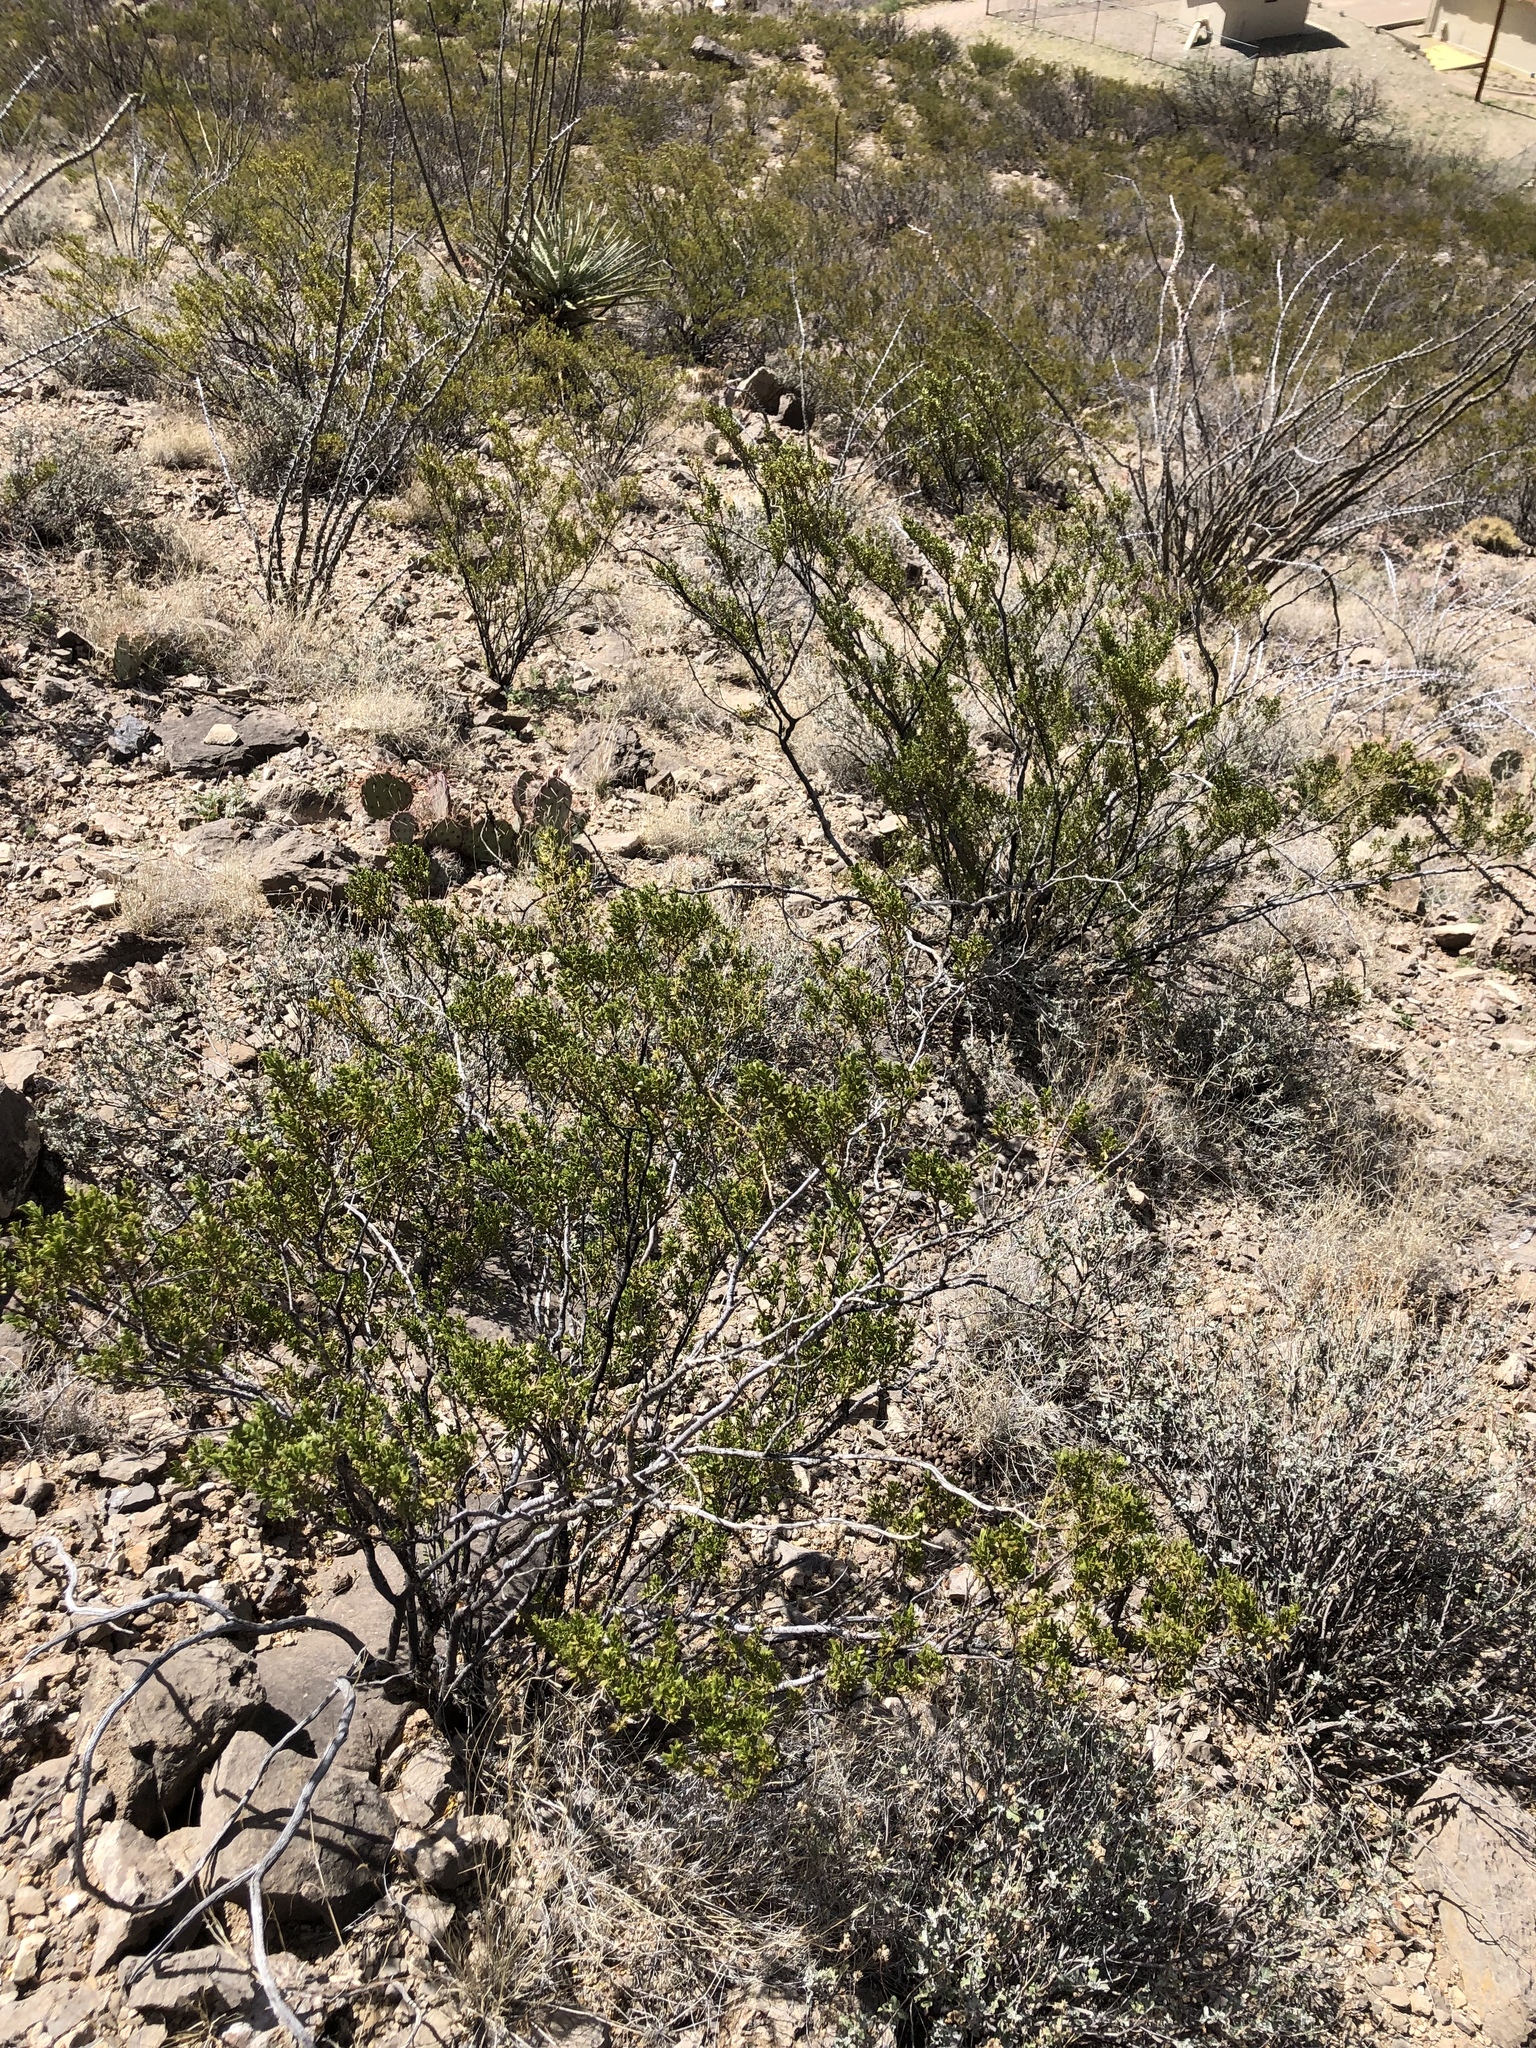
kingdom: Plantae
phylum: Tracheophyta
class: Magnoliopsida
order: Zygophyllales
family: Zygophyllaceae
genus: Larrea
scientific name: Larrea tridentata
